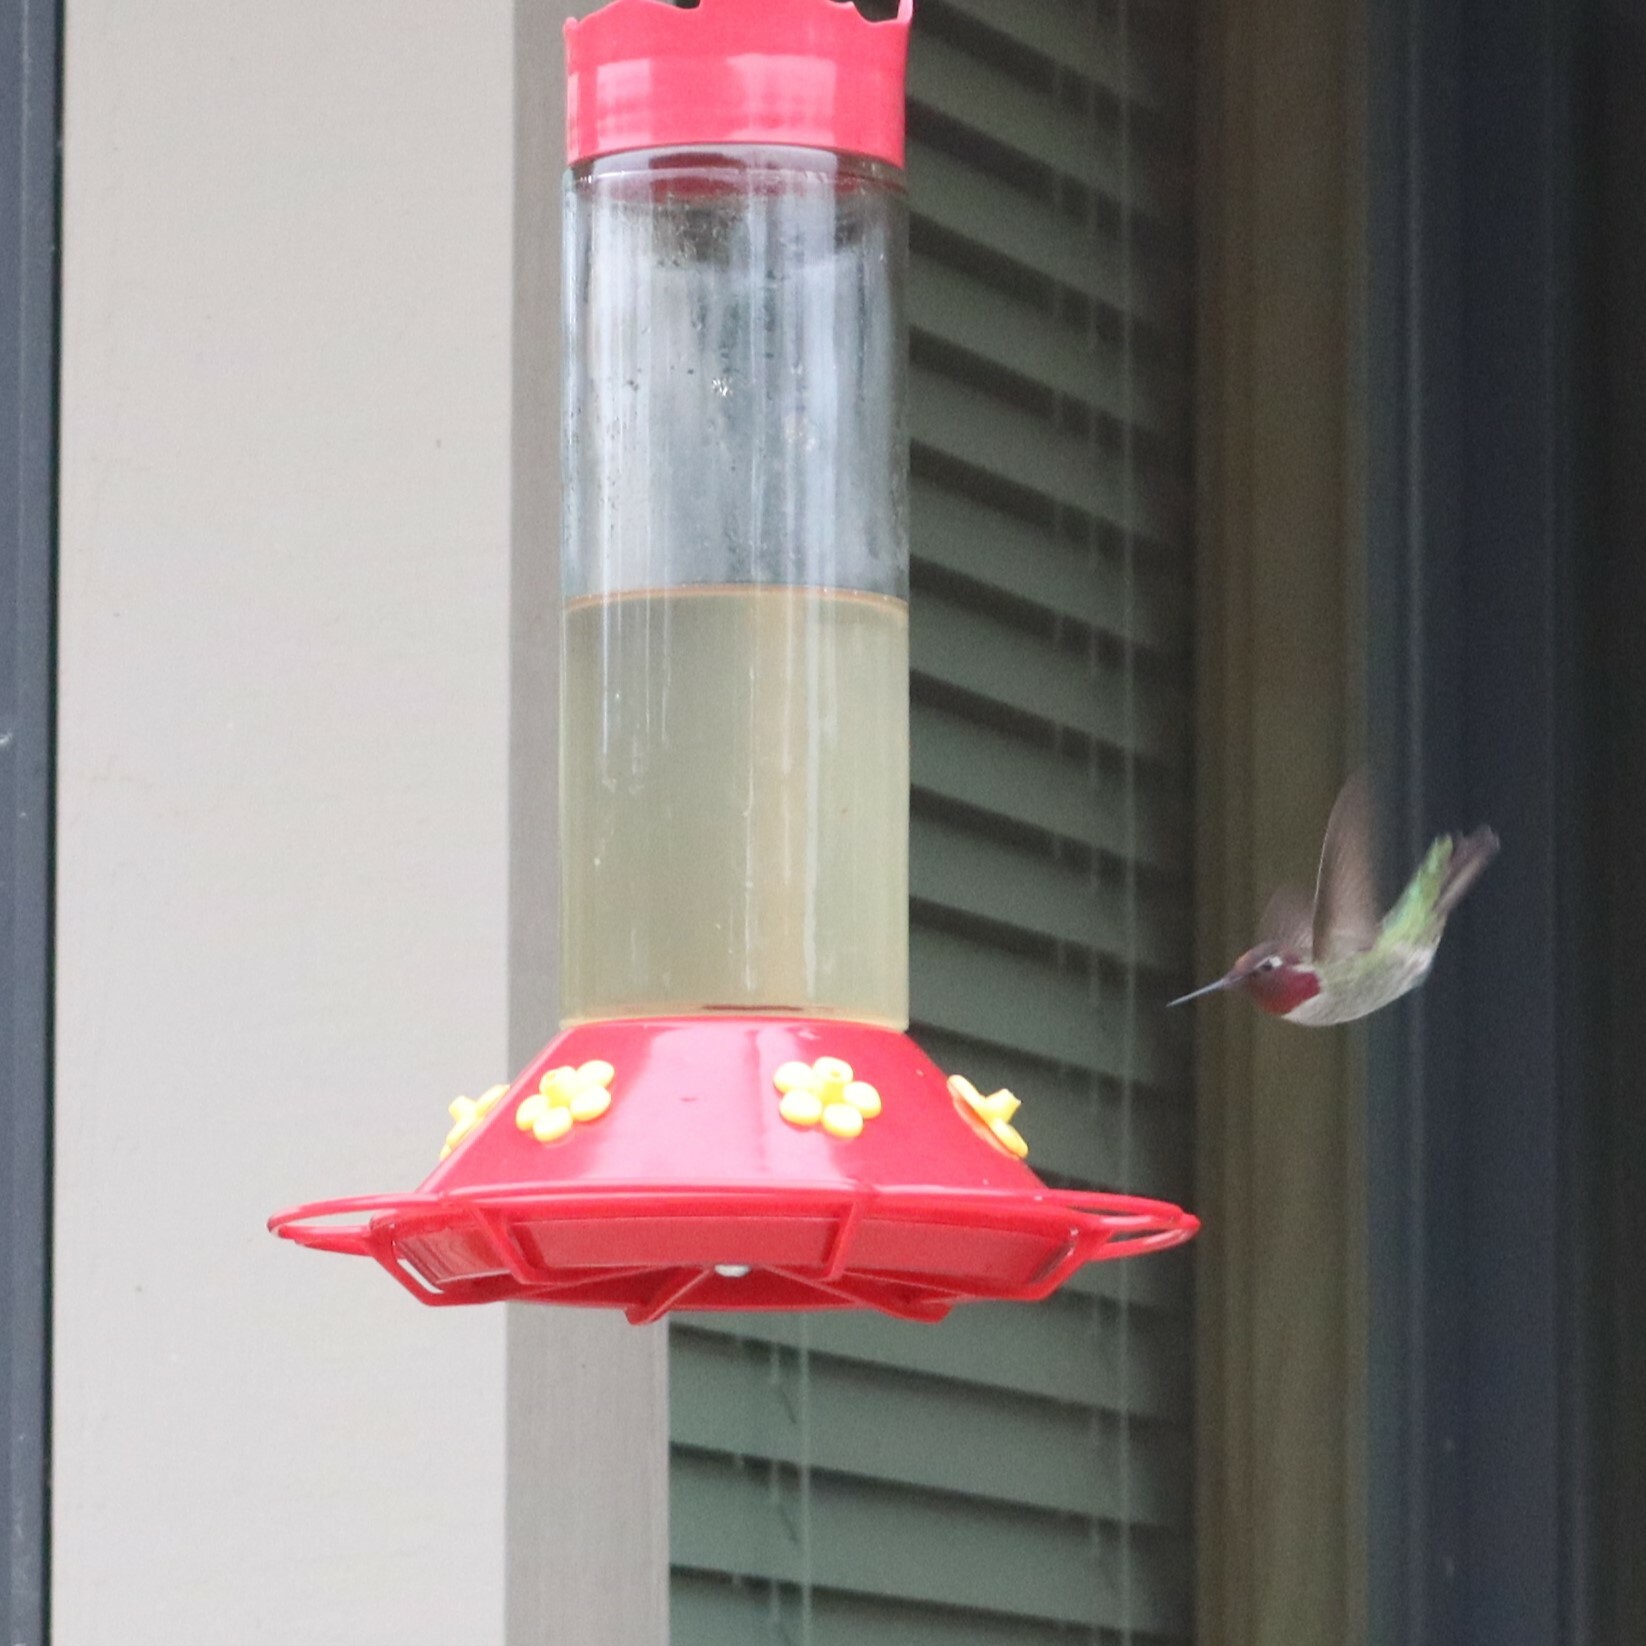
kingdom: Animalia
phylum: Chordata
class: Aves
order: Apodiformes
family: Trochilidae
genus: Calypte
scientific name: Calypte anna
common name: Anna's hummingbird
